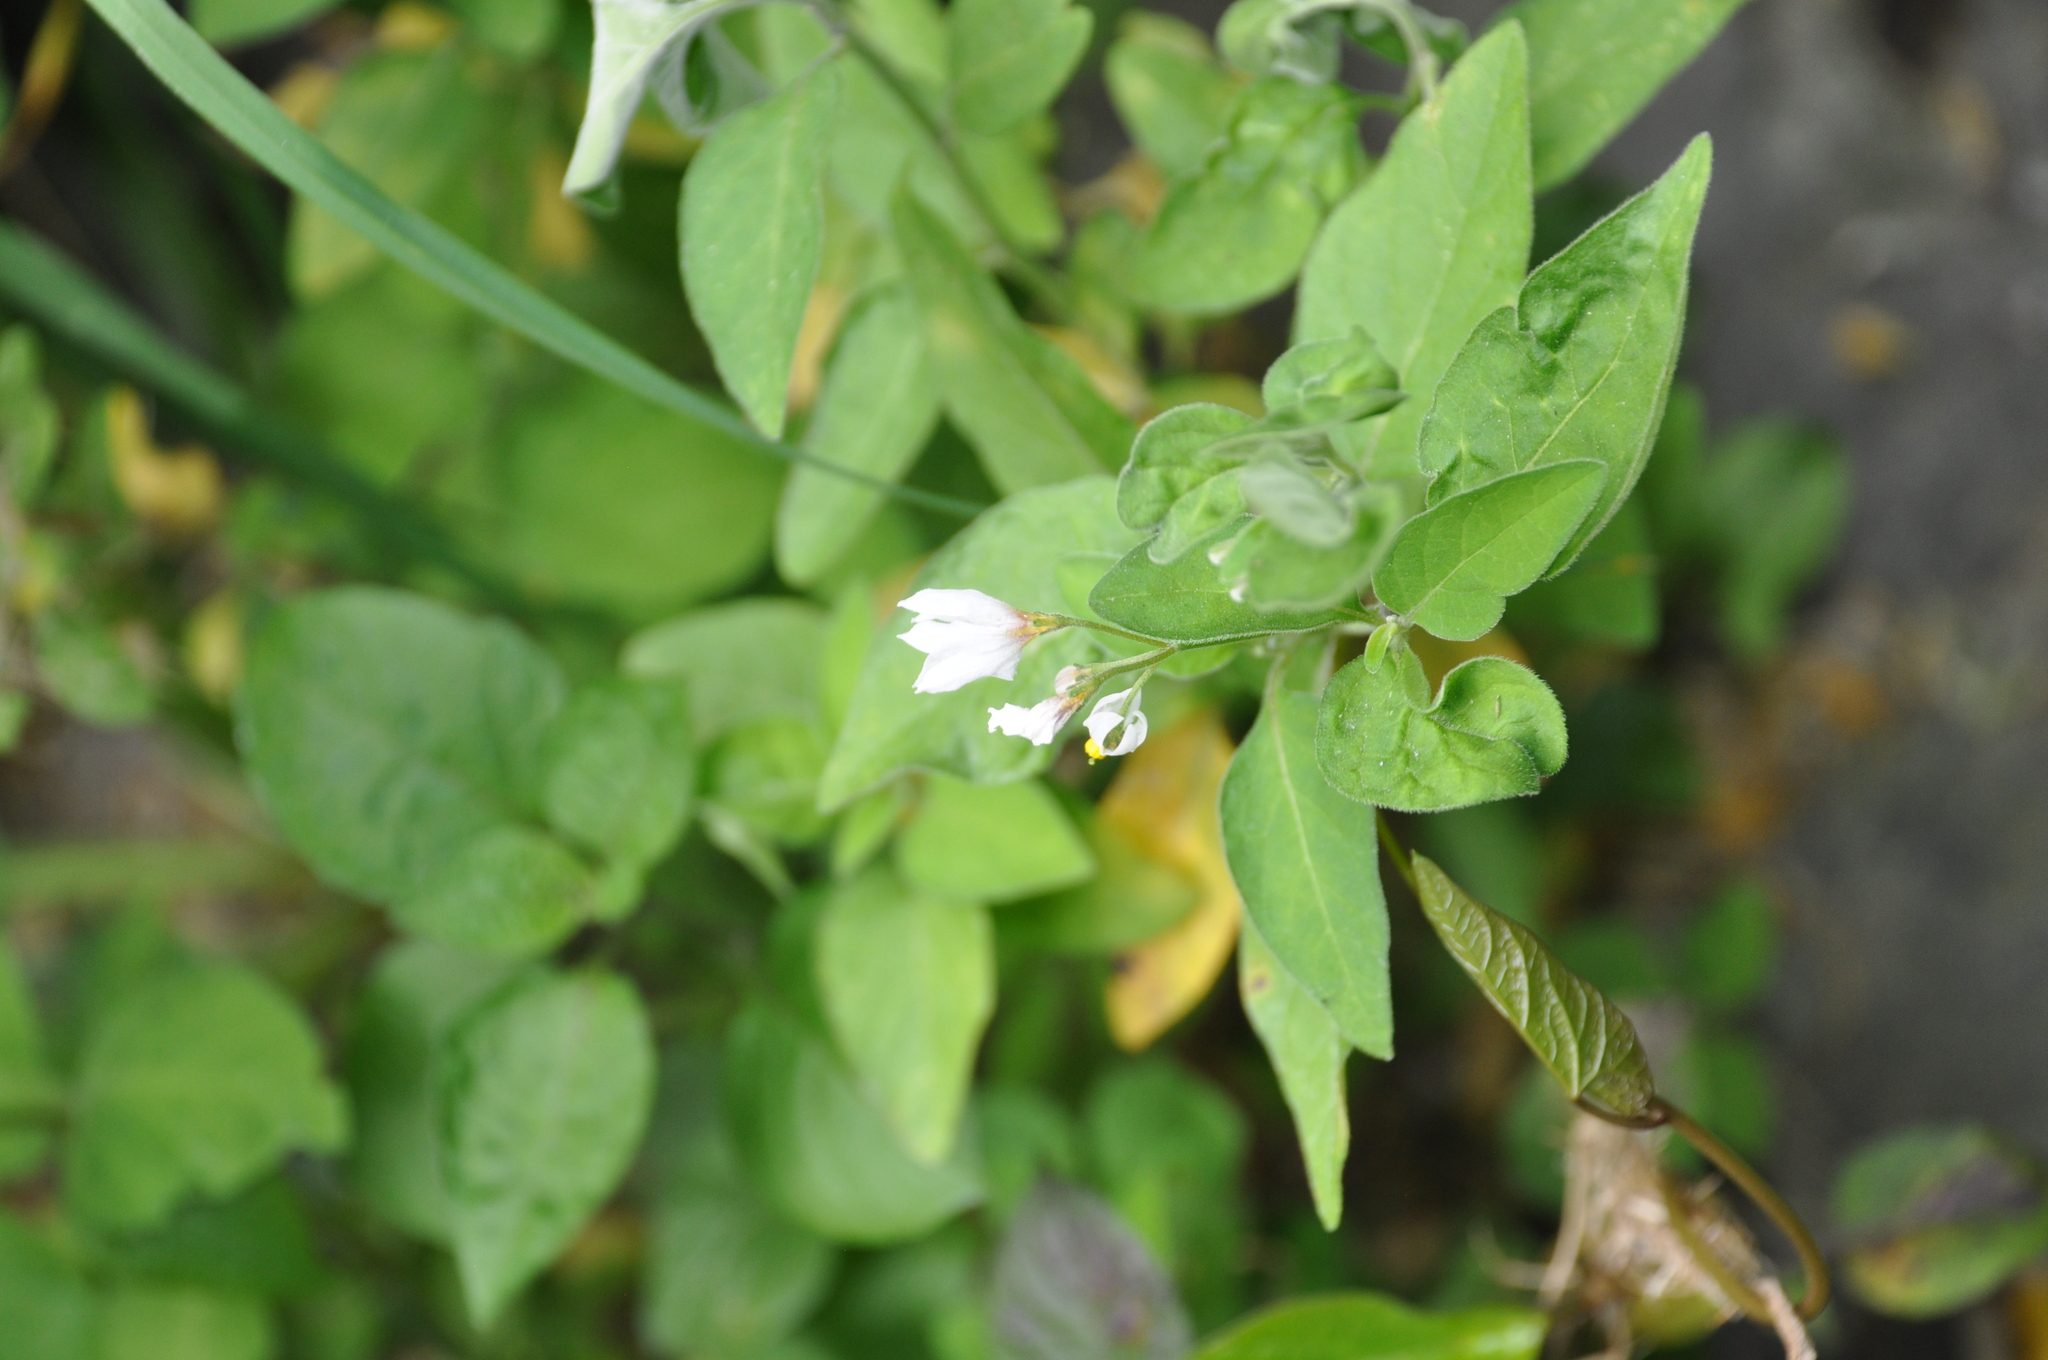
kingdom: Plantae
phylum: Tracheophyta
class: Magnoliopsida
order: Solanales
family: Solanaceae
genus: Solanum
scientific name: Solanum chenopodioides
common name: Tall nightshade
